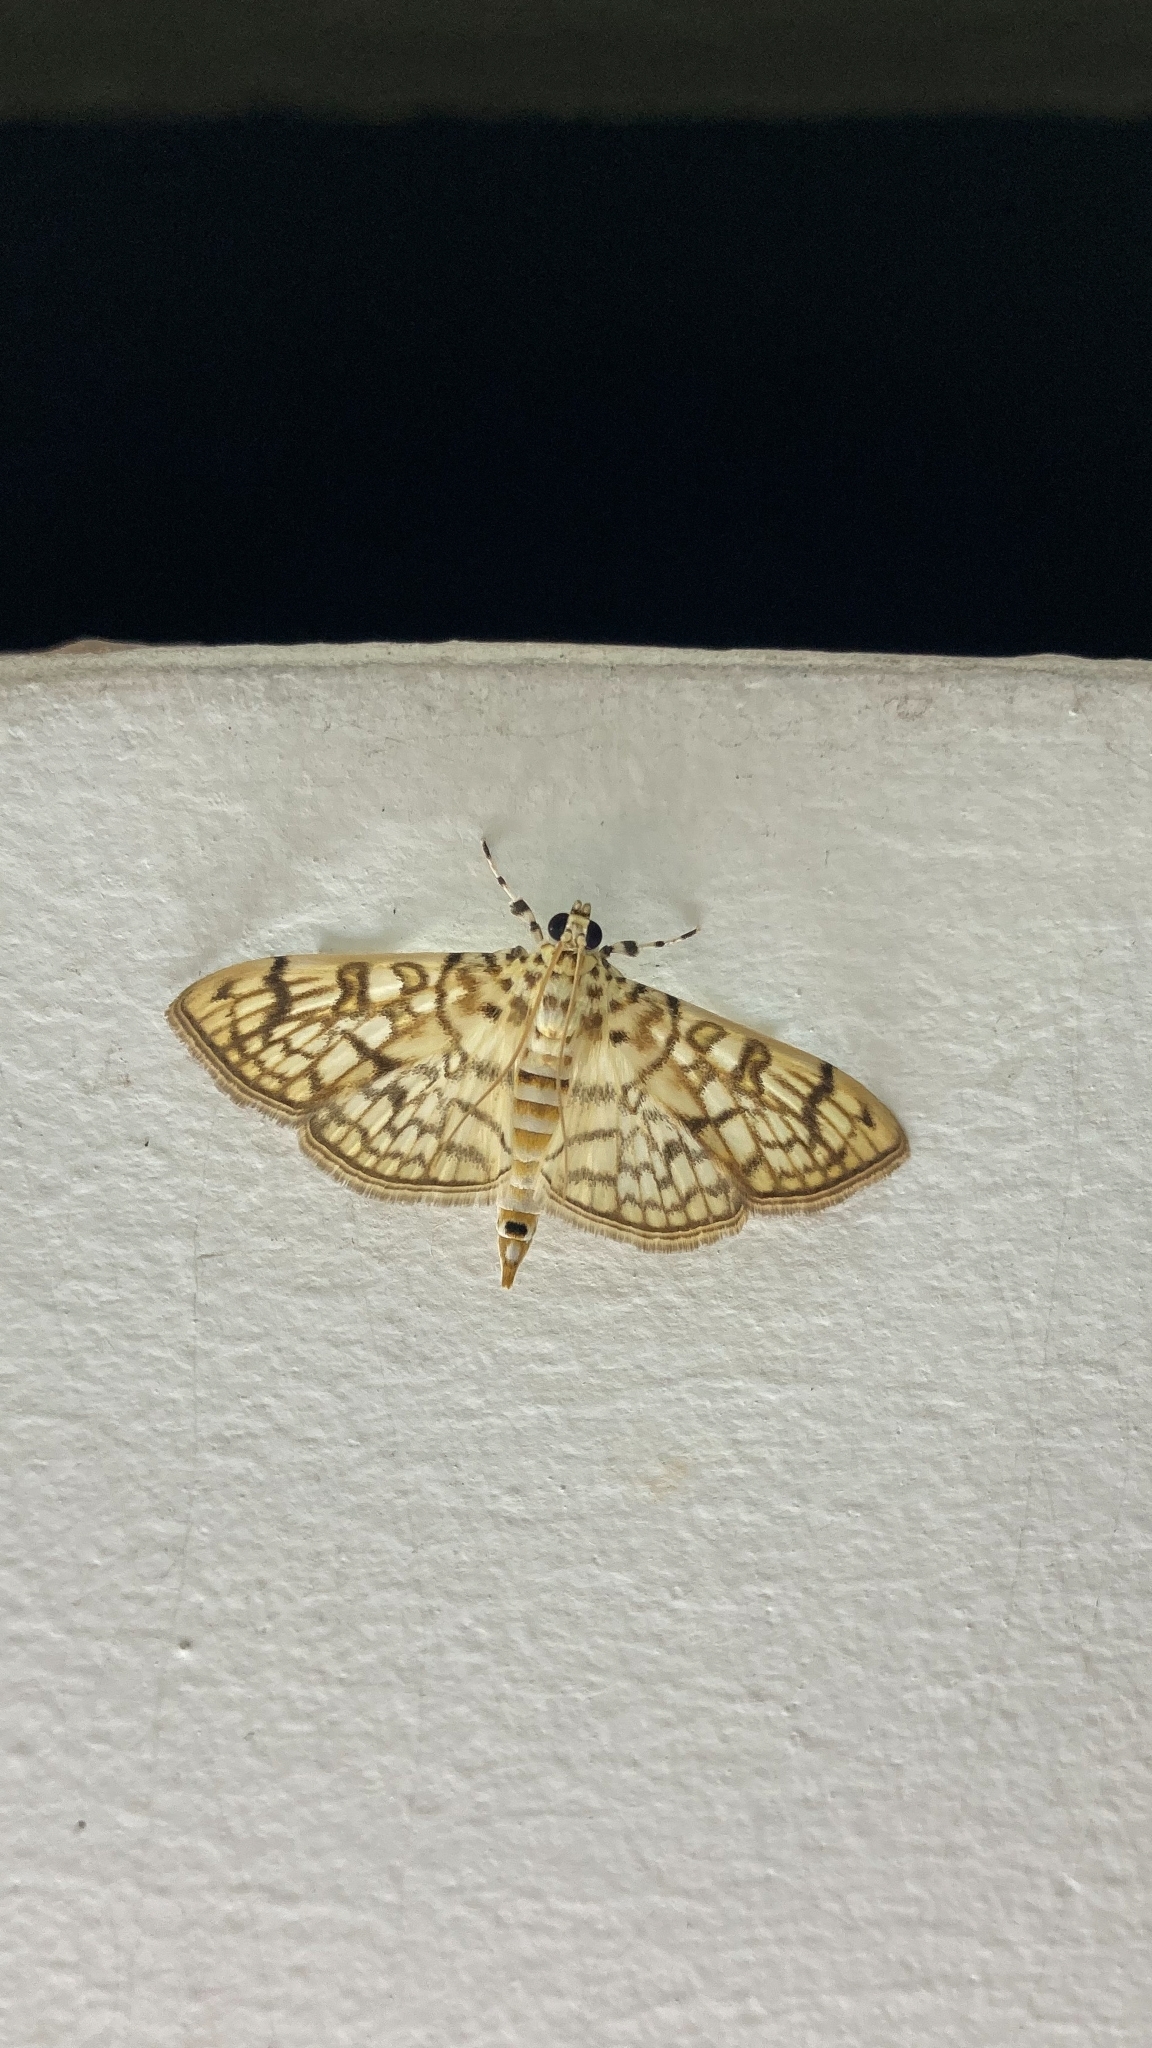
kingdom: Animalia
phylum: Arthropoda
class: Insecta
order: Lepidoptera
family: Crambidae
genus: Haritalodes
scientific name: Haritalodes derogata
